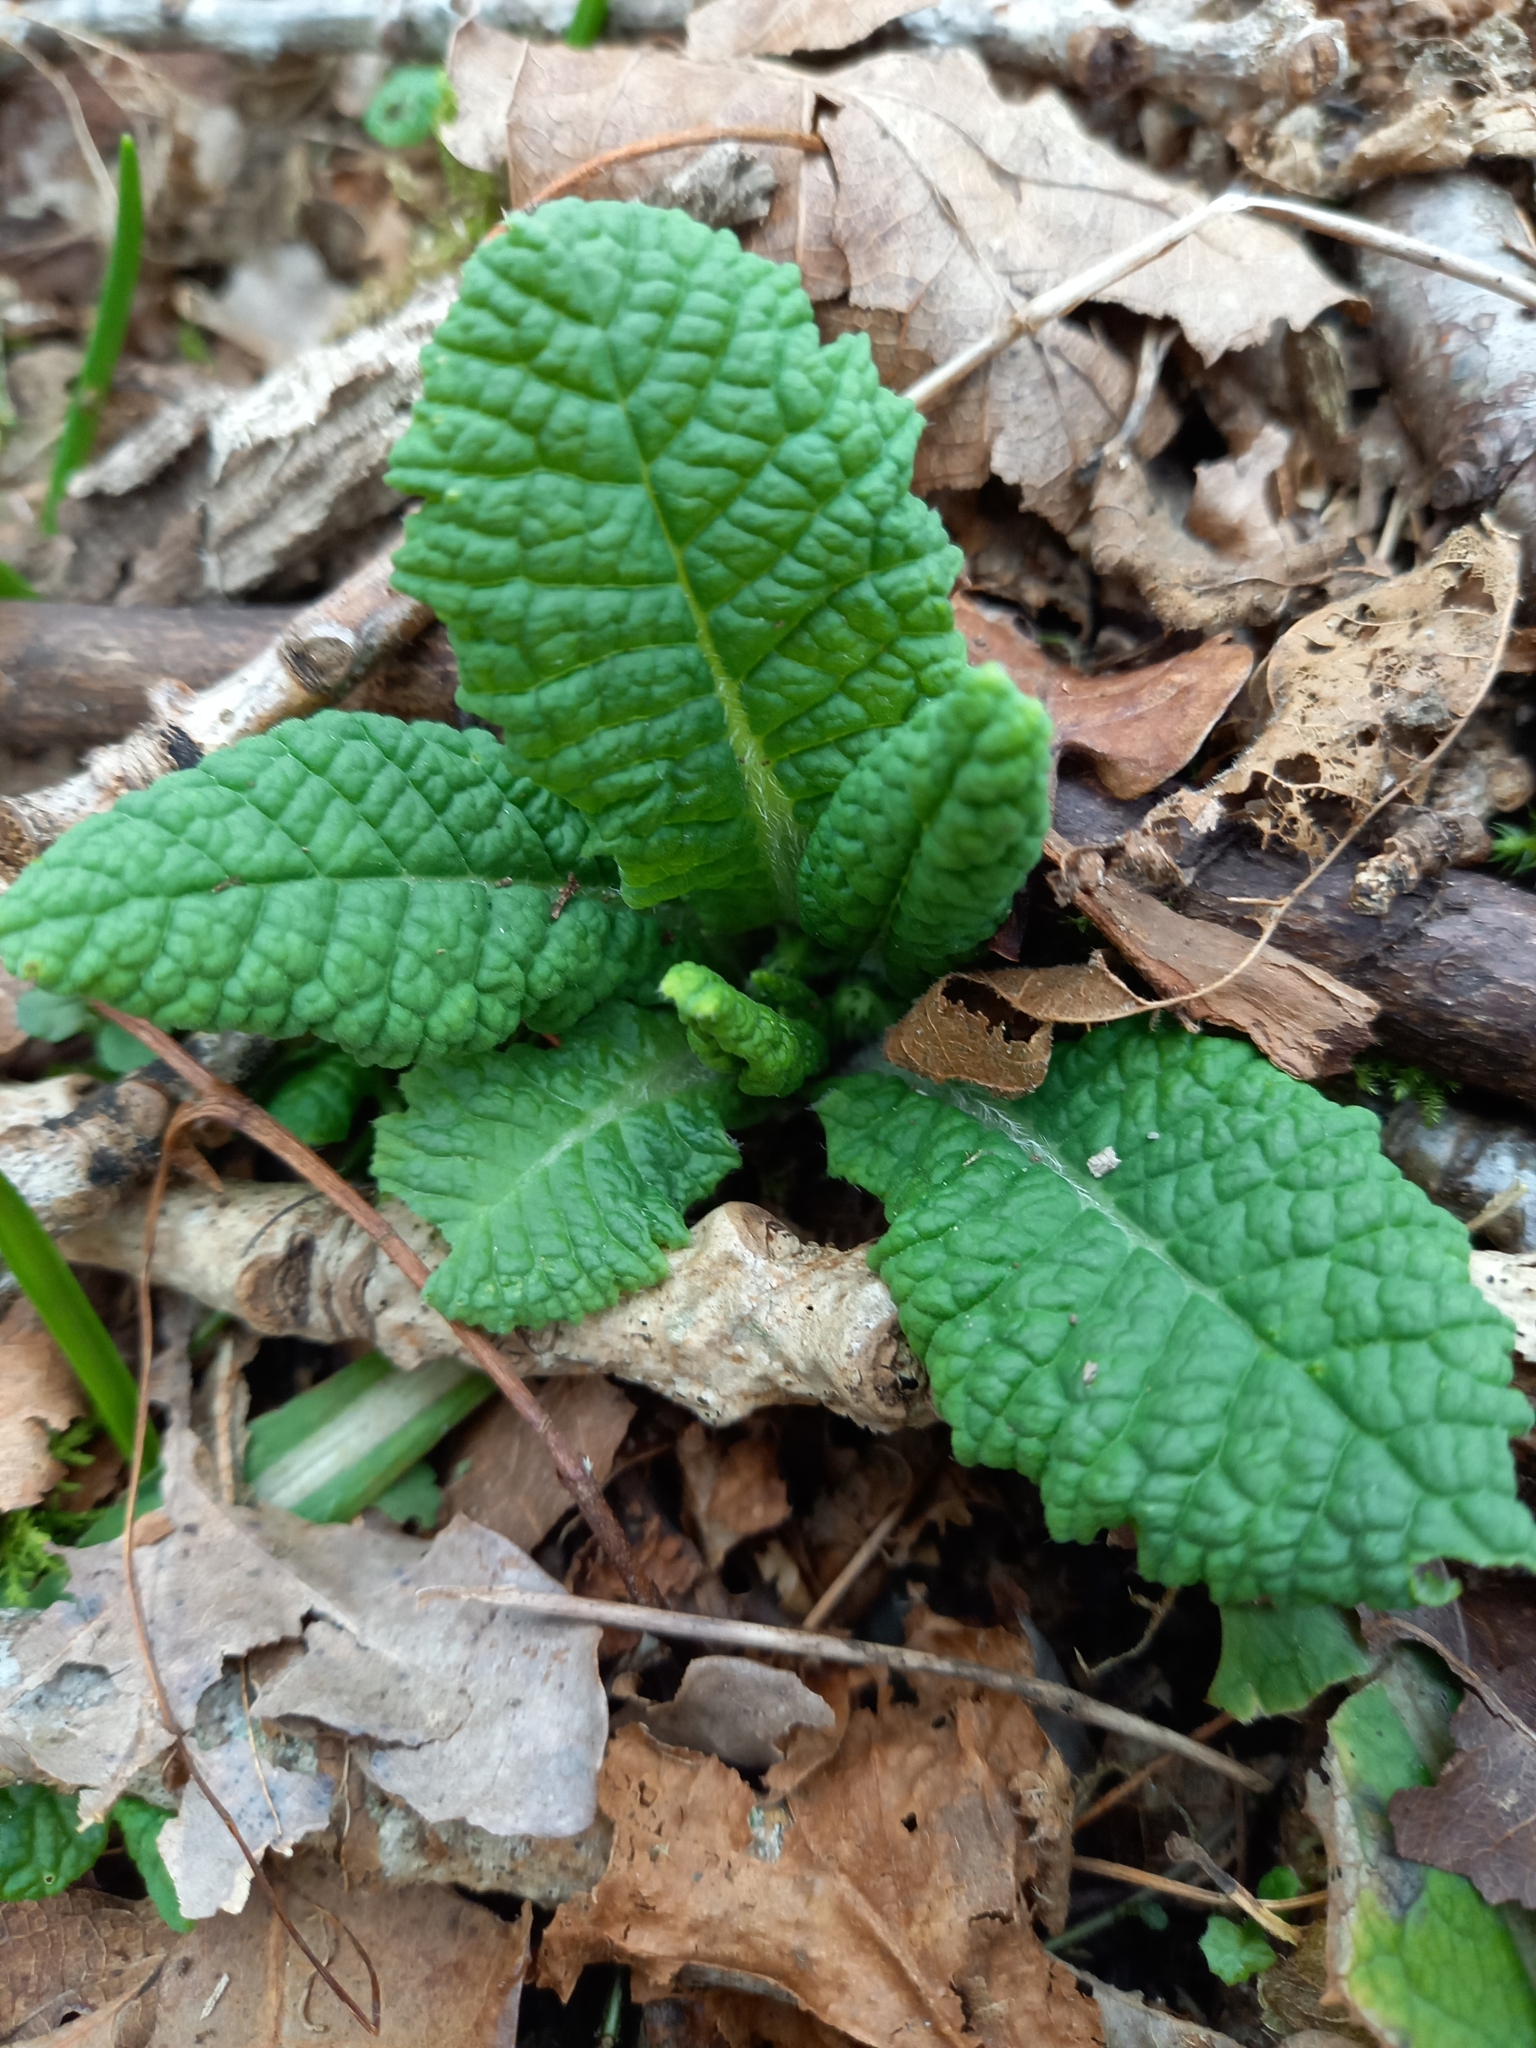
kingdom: Plantae
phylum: Tracheophyta
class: Magnoliopsida
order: Ericales
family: Primulaceae
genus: Primula
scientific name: Primula vulgaris
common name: Primrose
